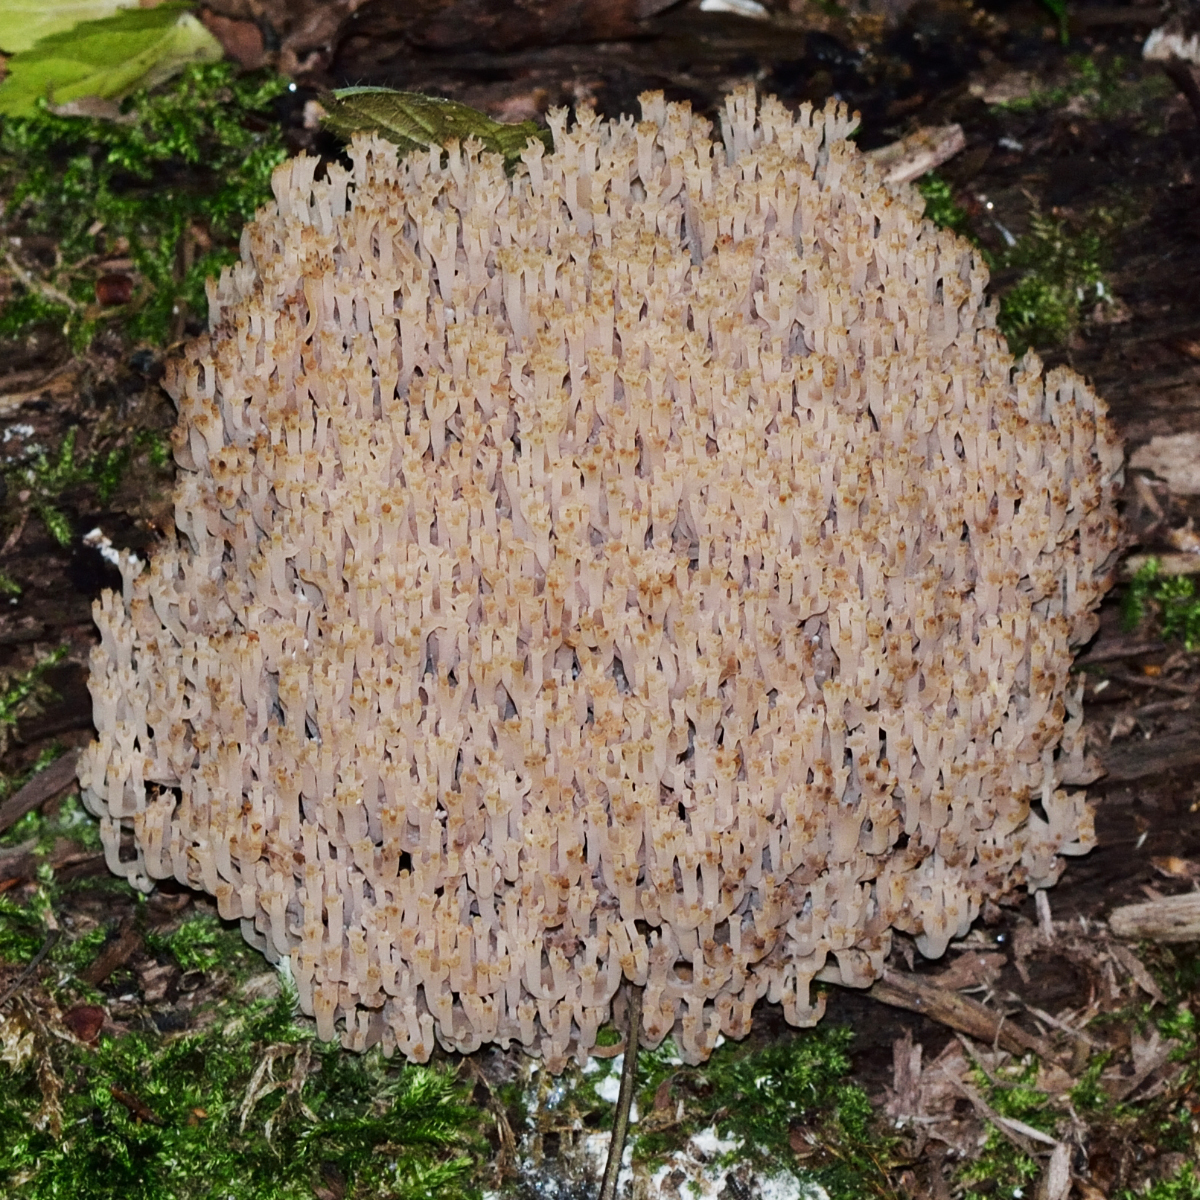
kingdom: Fungi
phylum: Basidiomycota
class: Agaricomycetes
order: Russulales
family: Auriscalpiaceae
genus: Artomyces
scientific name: Artomyces pyxidatus
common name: Crown-tipped coral fungus
